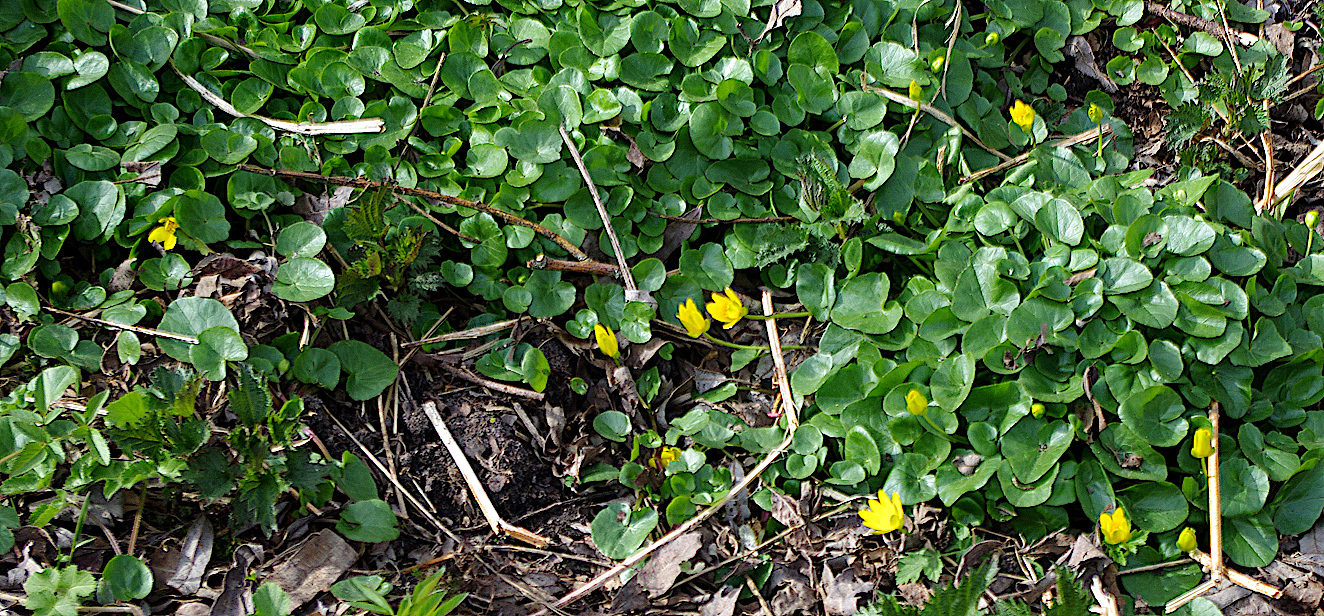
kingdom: Plantae
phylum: Tracheophyta
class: Magnoliopsida
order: Ranunculales
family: Ranunculaceae
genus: Ficaria
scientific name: Ficaria verna
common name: Lesser celandine
